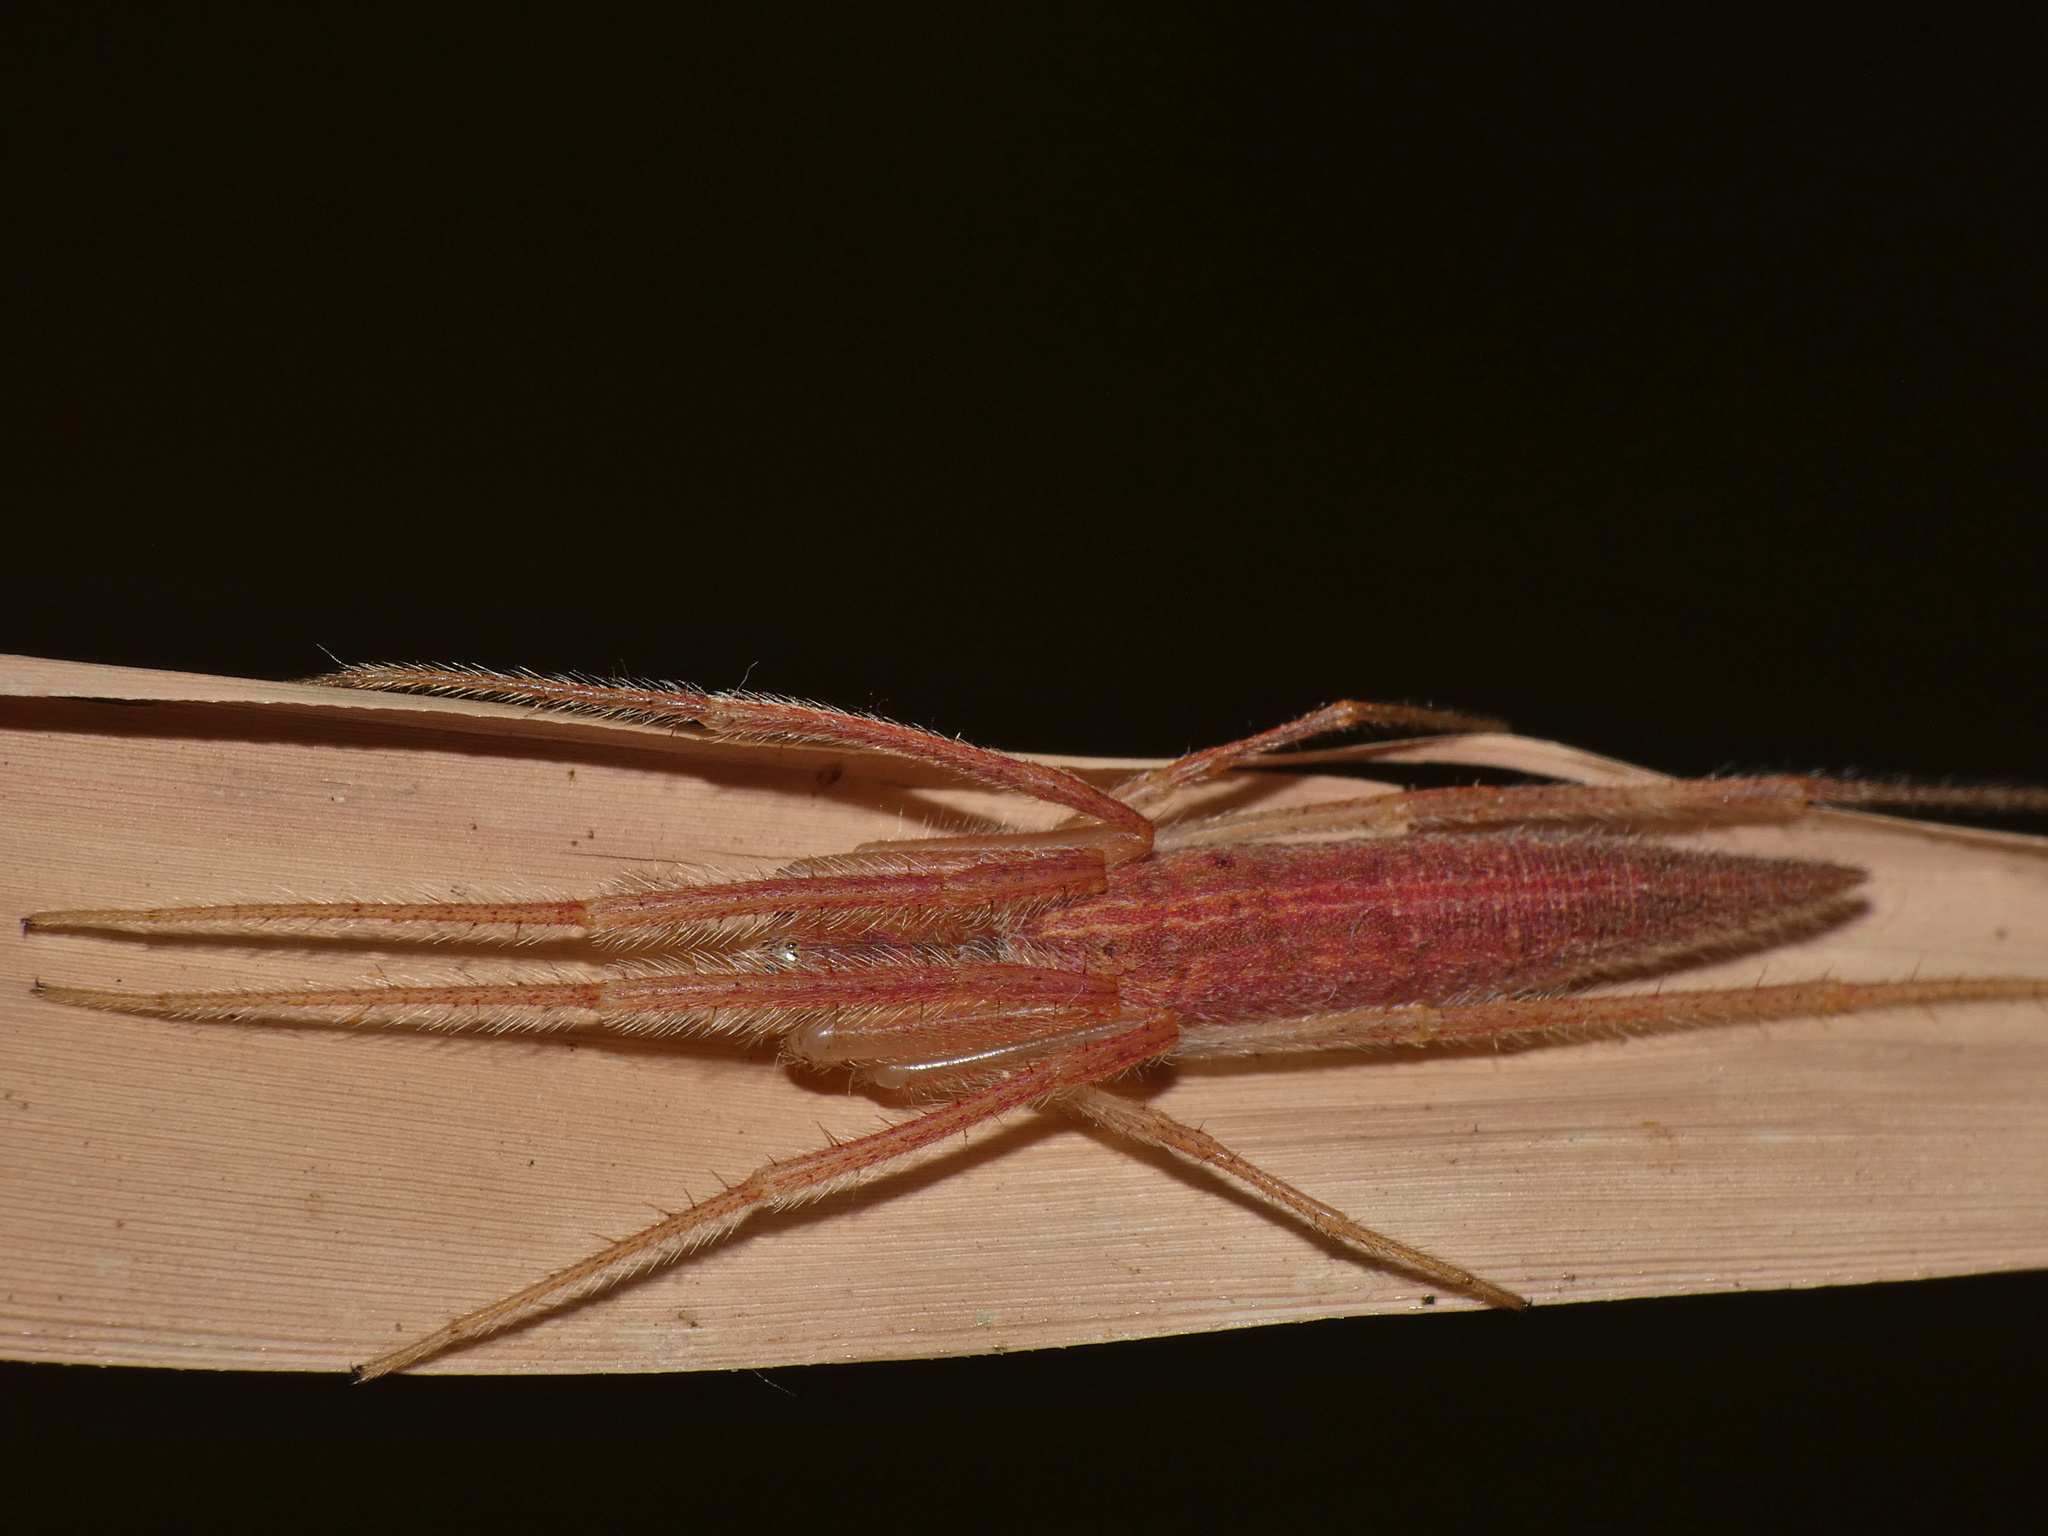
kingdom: Animalia
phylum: Arthropoda
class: Arachnida
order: Araneae
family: Araneidae
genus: Mahembea
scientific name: Mahembea hewitti
